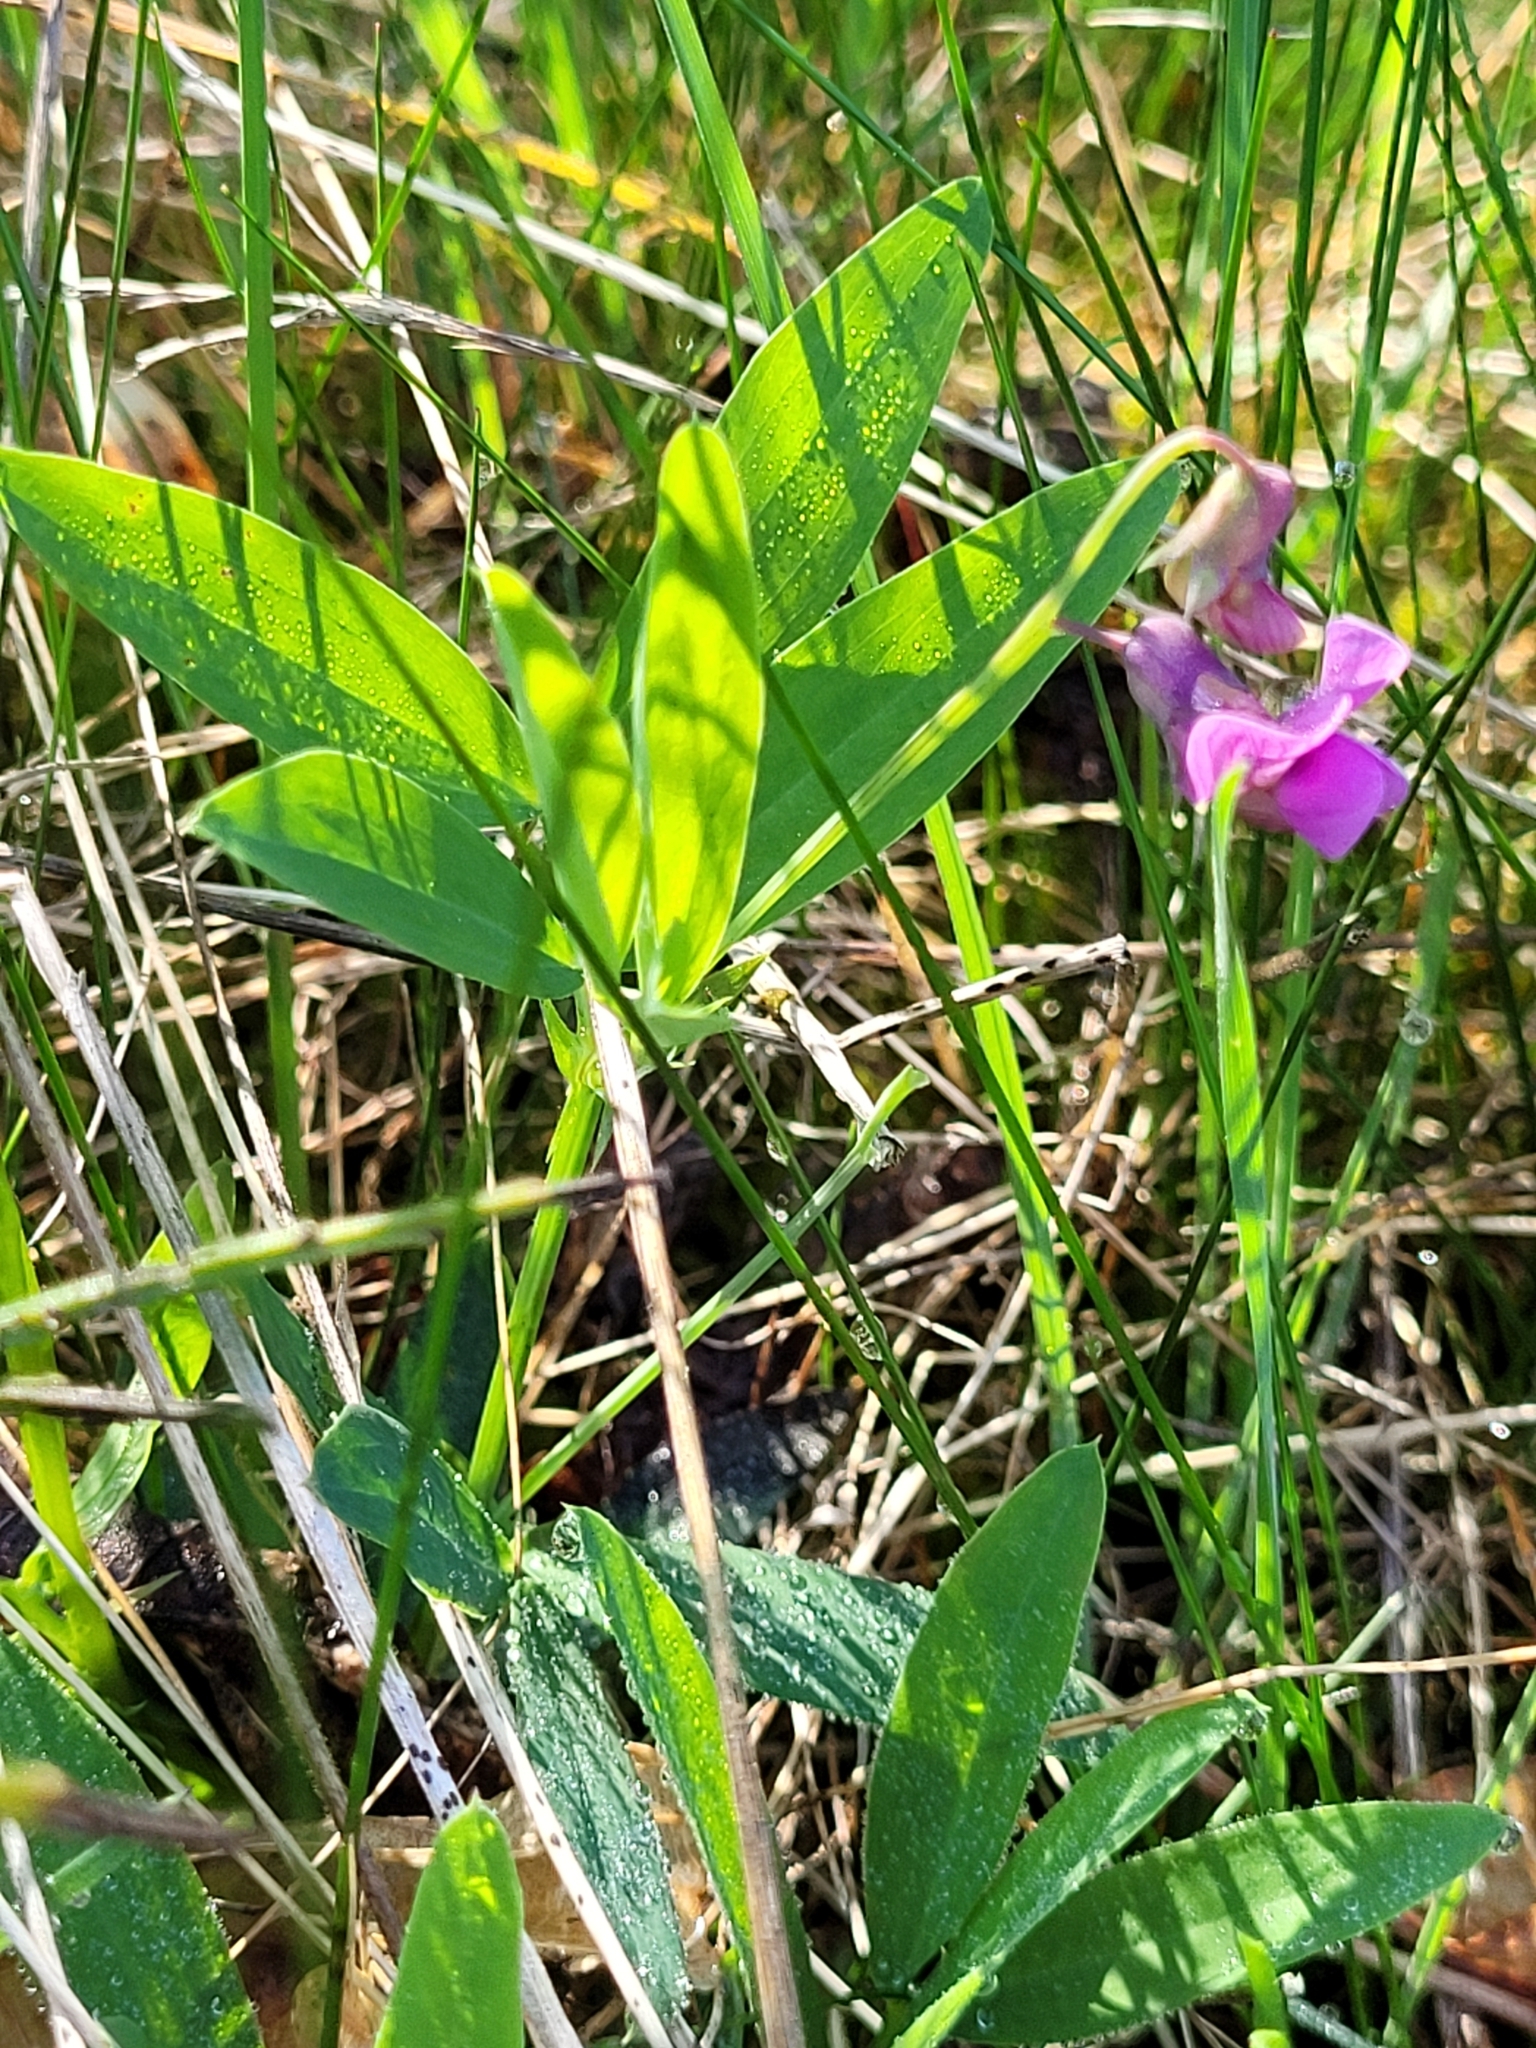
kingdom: Plantae
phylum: Tracheophyta
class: Magnoliopsida
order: Fabales
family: Fabaceae
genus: Lathyrus
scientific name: Lathyrus linifolius
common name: Bitter-vetch
